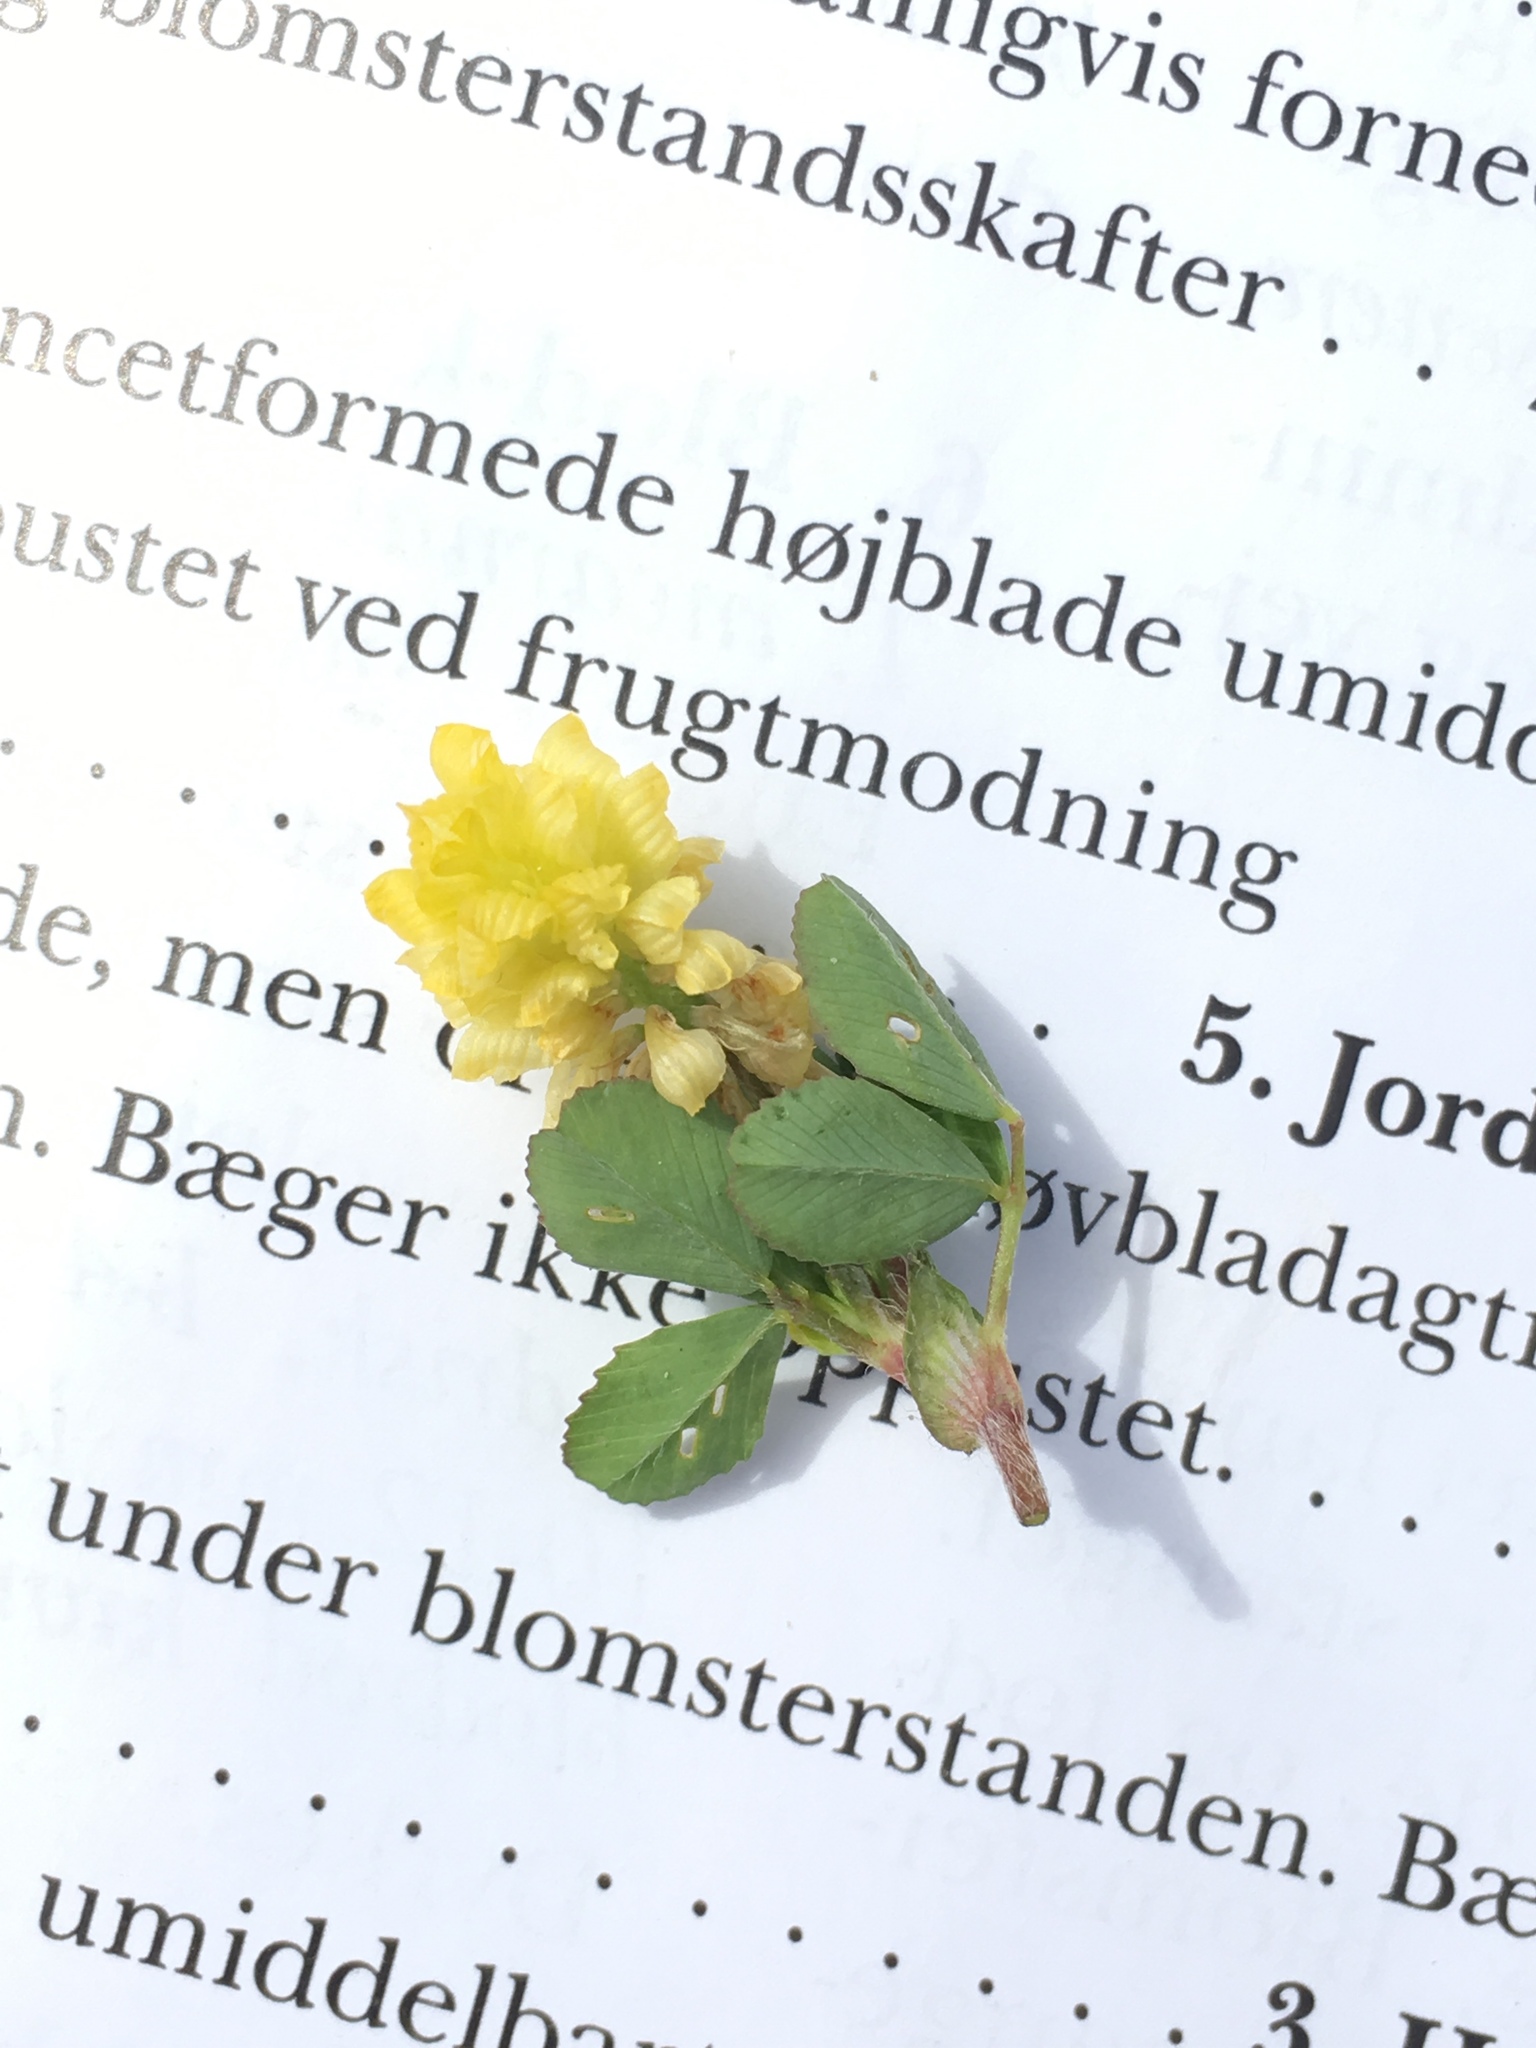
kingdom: Plantae
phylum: Tracheophyta
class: Magnoliopsida
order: Fabales
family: Fabaceae
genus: Trifolium
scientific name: Trifolium campestre
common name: Field clover
